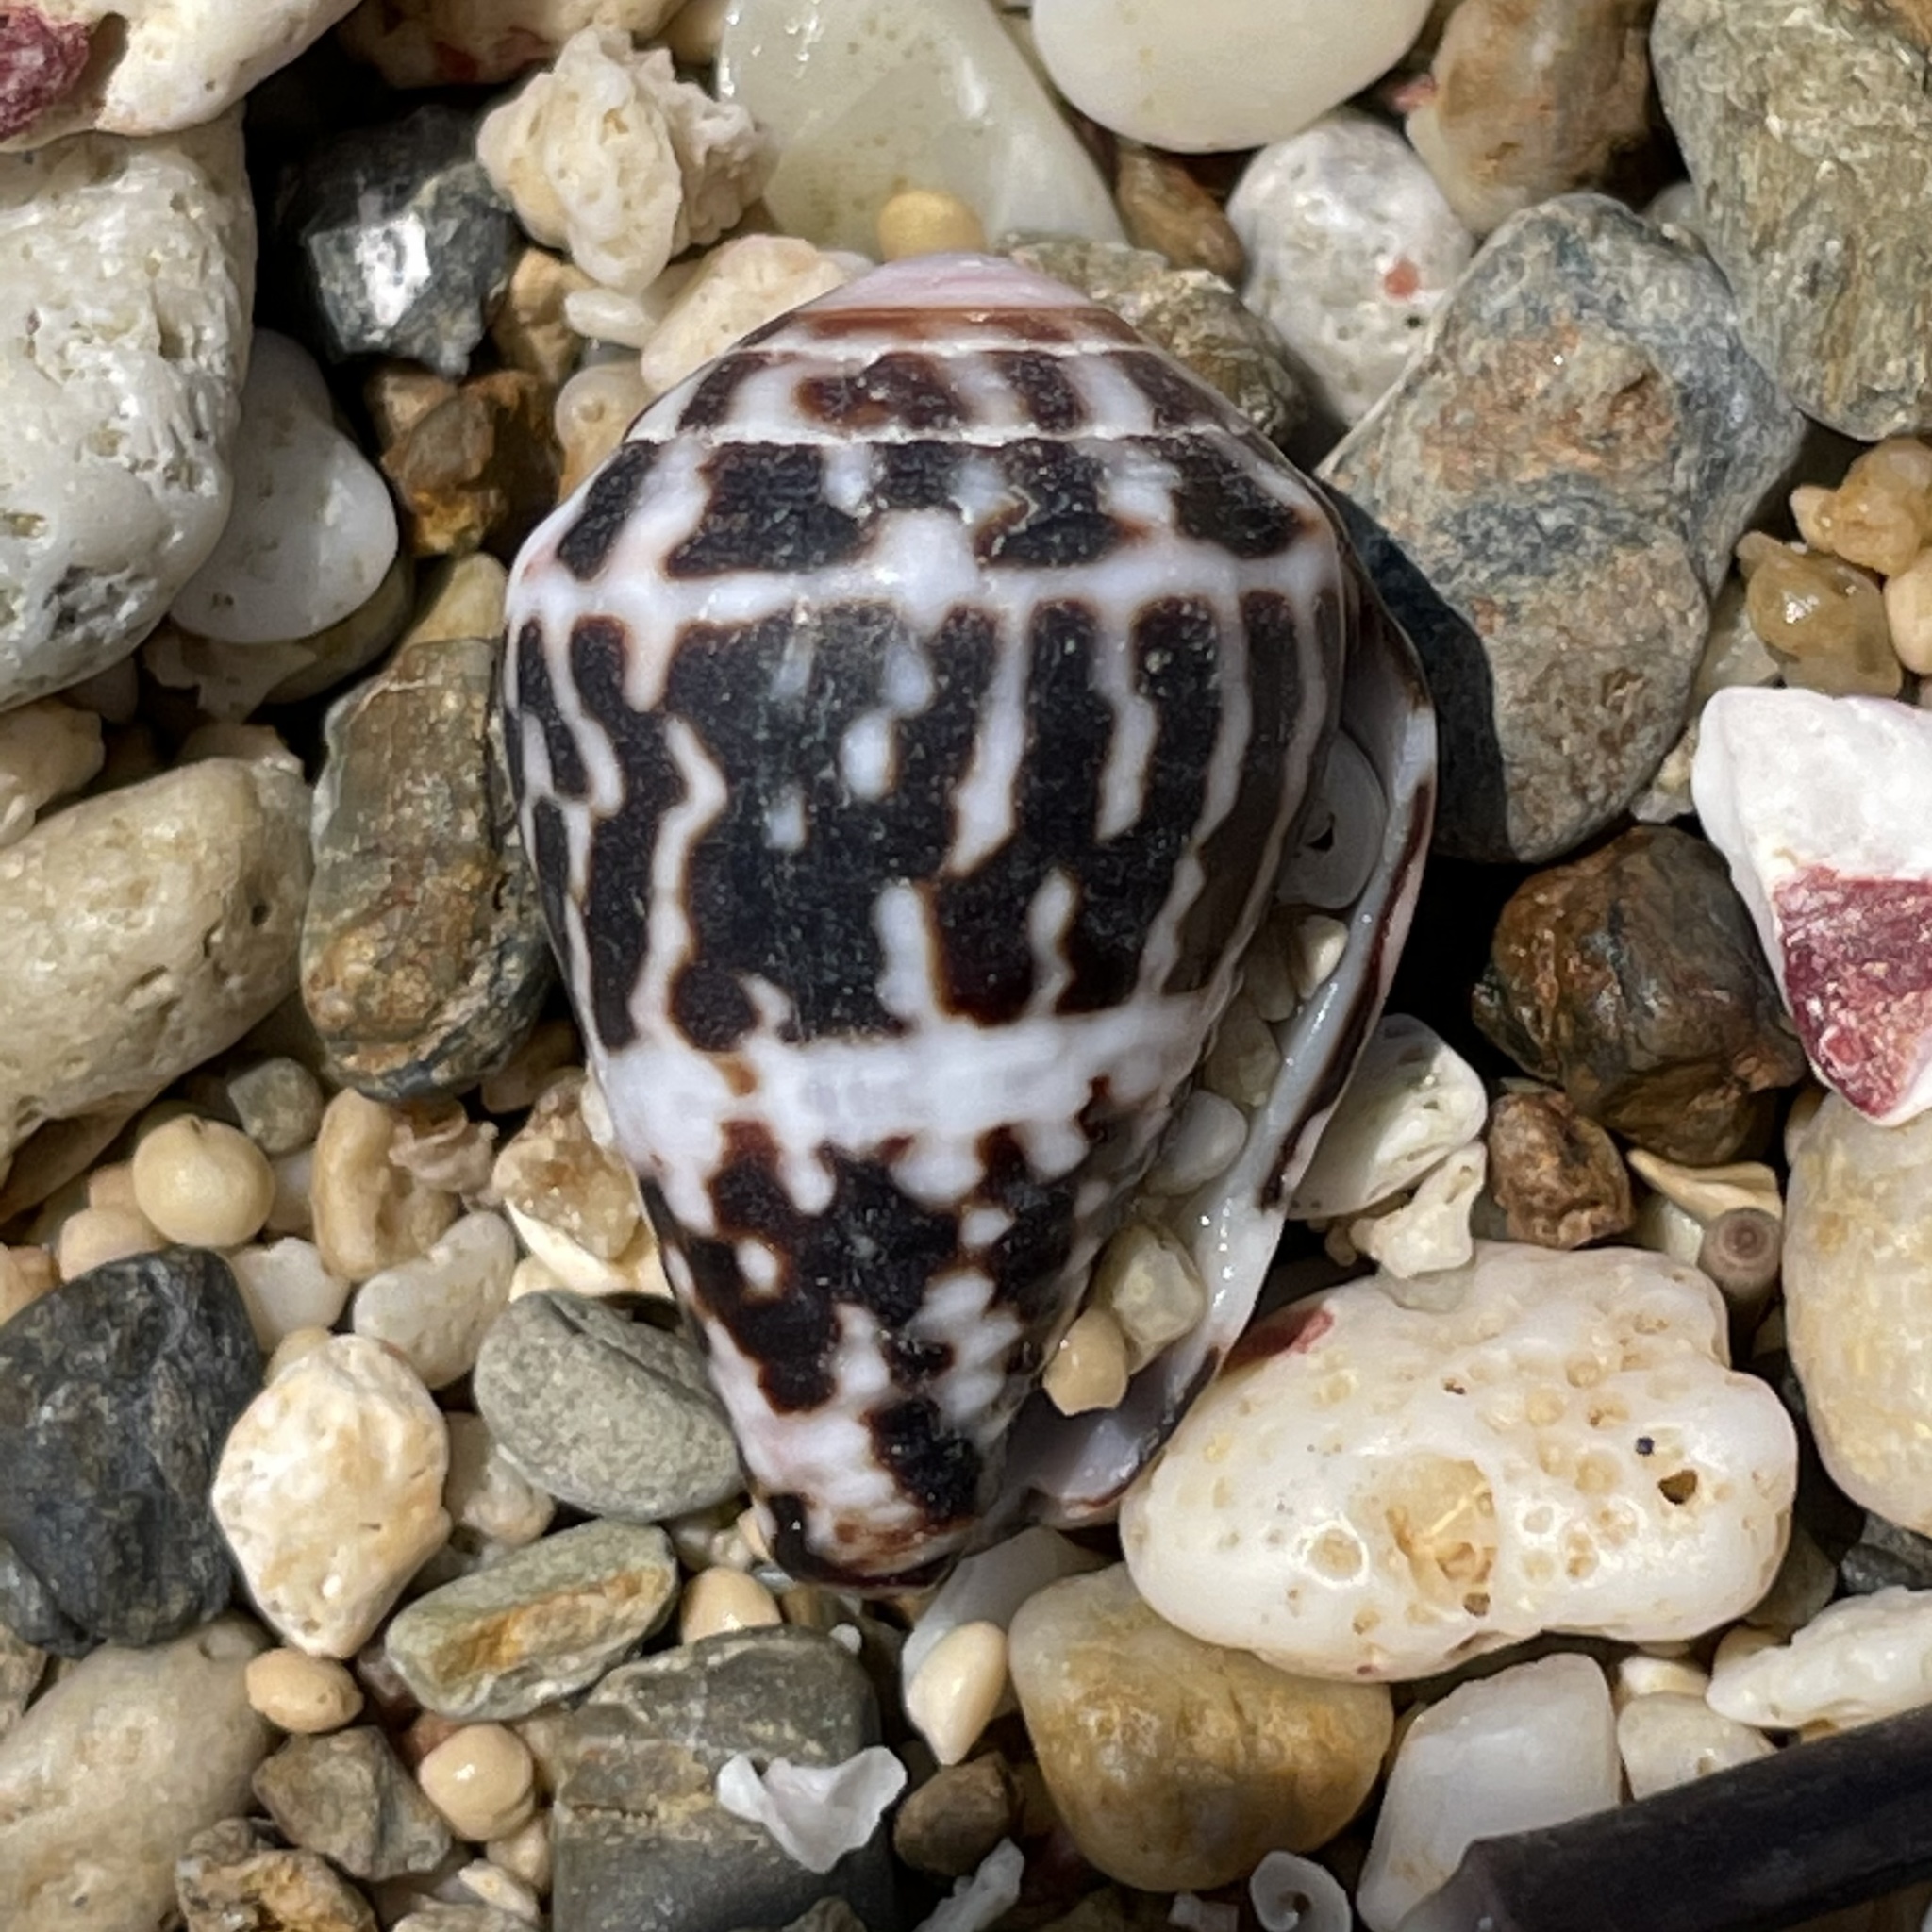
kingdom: Animalia
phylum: Mollusca
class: Gastropoda
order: Neogastropoda
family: Conidae
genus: Conus
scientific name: Conus chaldaeus
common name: Astrologer's cone
